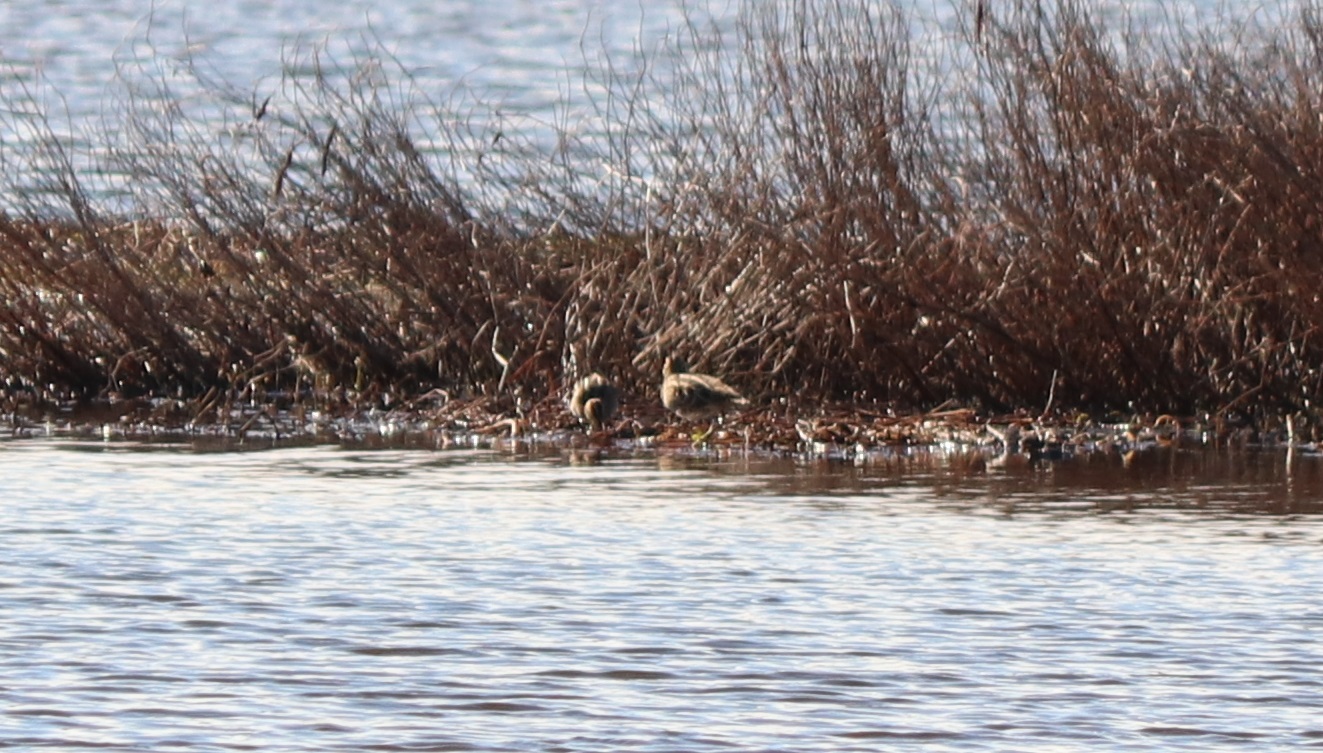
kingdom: Animalia
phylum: Chordata
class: Aves
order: Charadriiformes
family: Scolopacidae
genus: Gallinago
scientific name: Gallinago delicata
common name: Wilson's snipe
